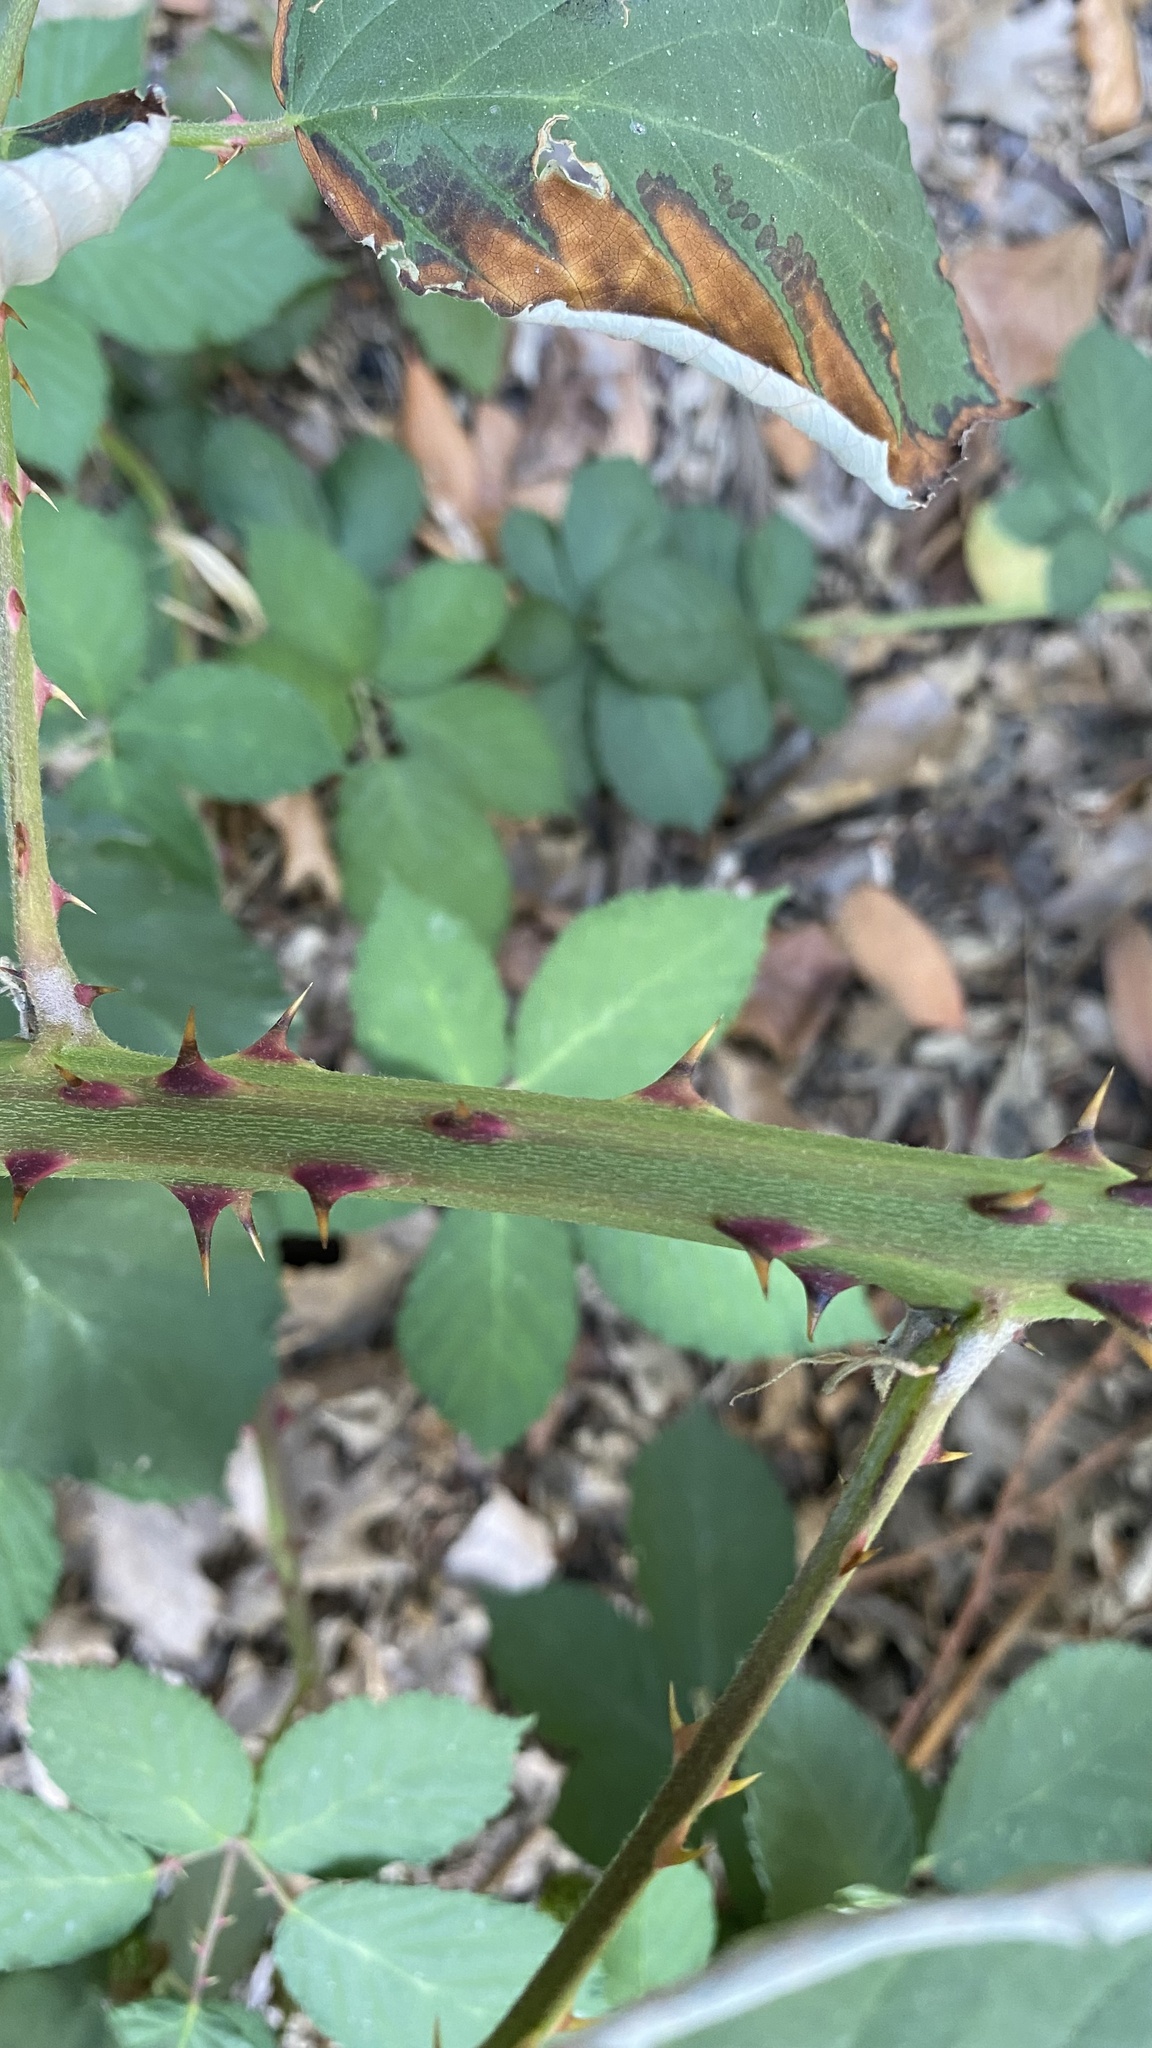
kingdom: Plantae
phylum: Tracheophyta
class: Magnoliopsida
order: Rosales
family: Rosaceae
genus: Rubus
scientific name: Rubus armeniacus
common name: Himalayan blackberry
